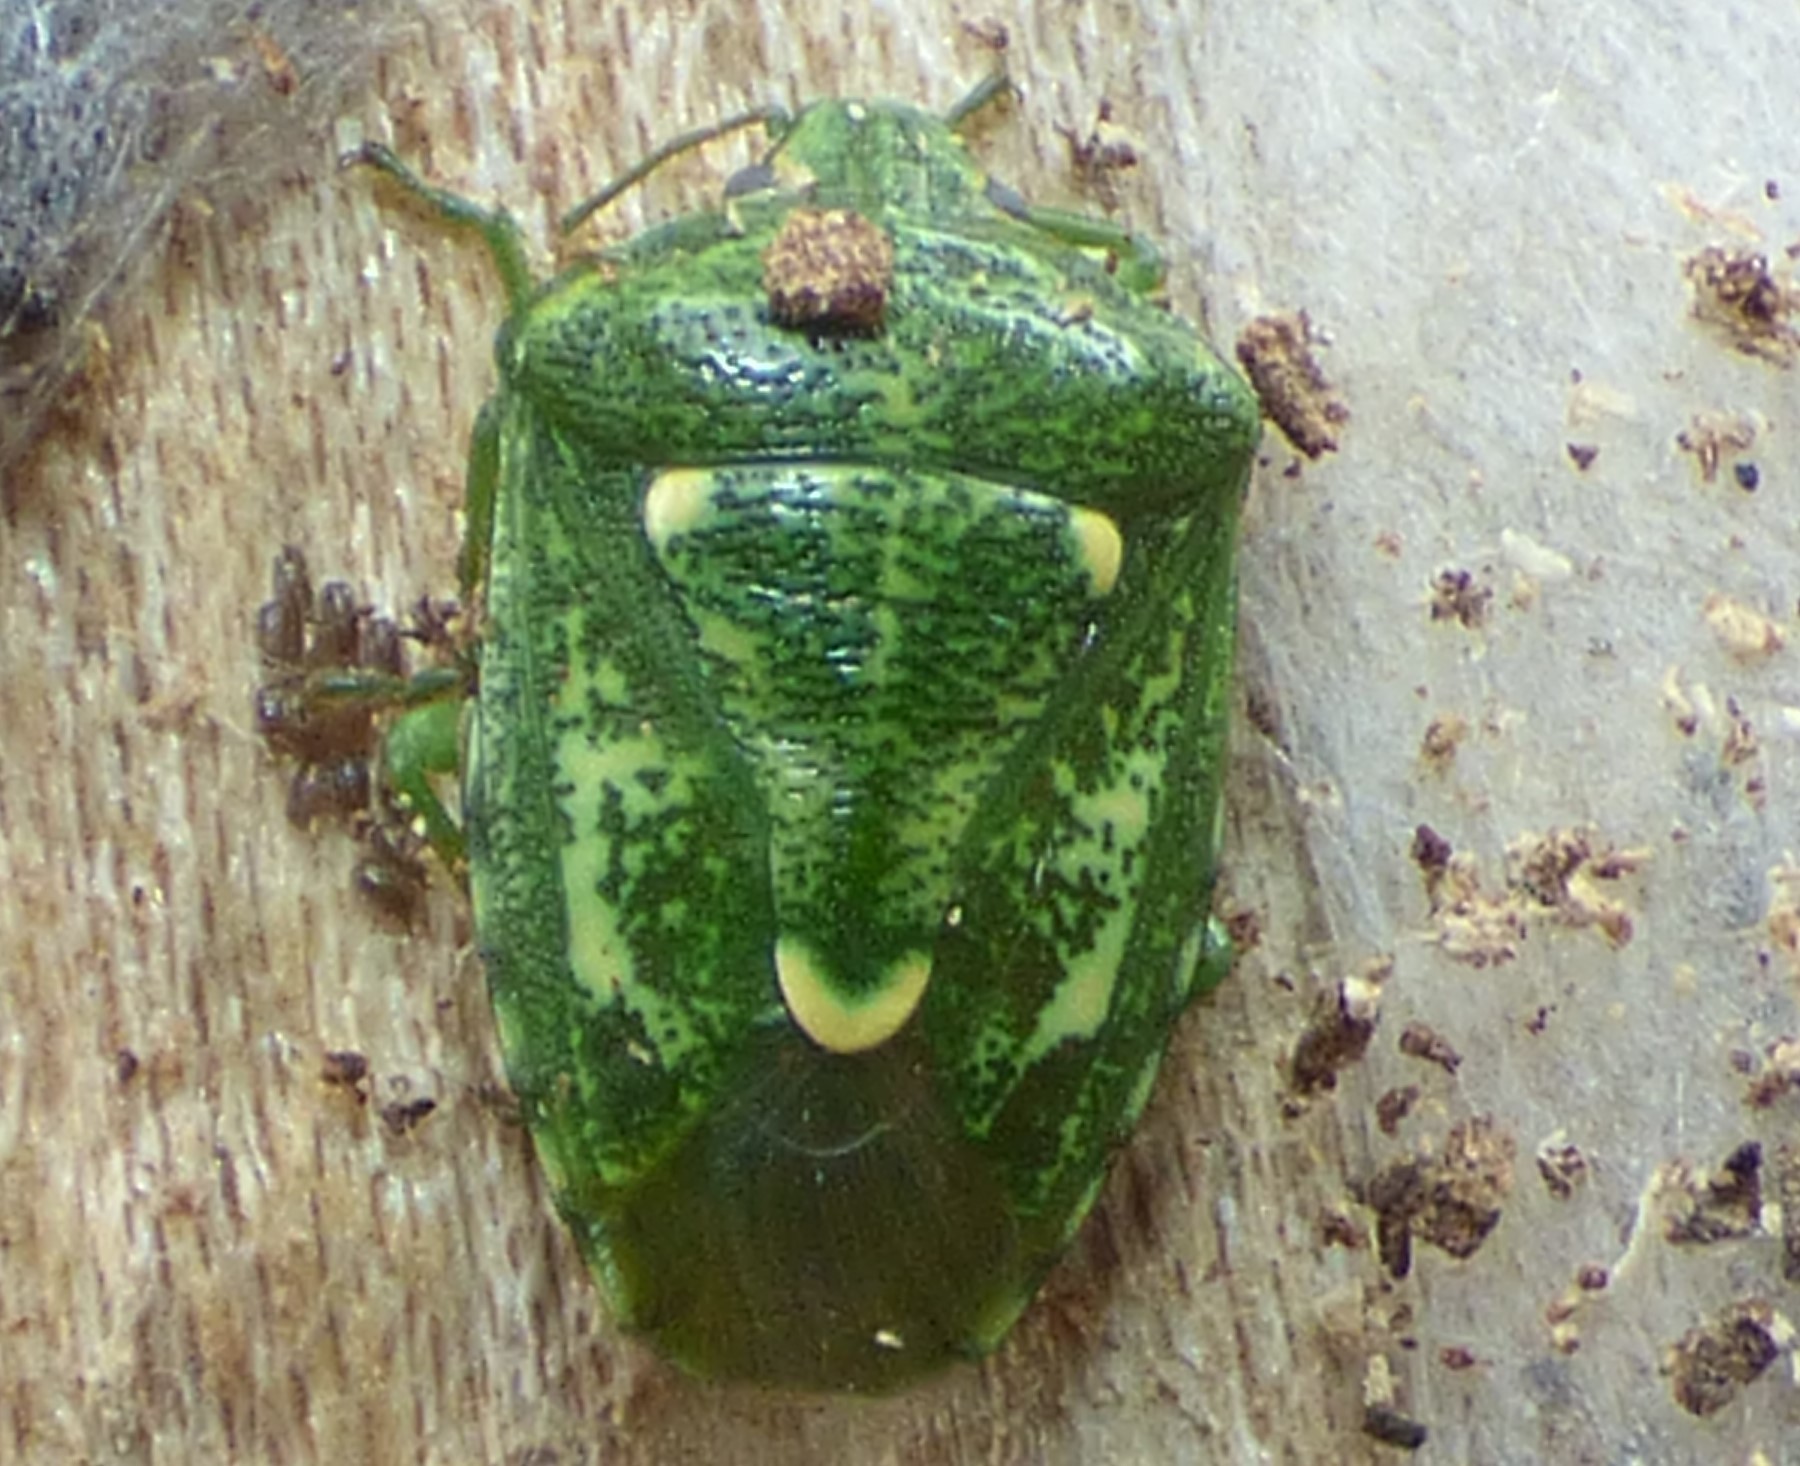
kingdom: Animalia
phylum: Arthropoda
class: Insecta
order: Hemiptera
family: Pentatomidae
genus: Banasa
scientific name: Banasa euchlora
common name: Cedar berry bug
